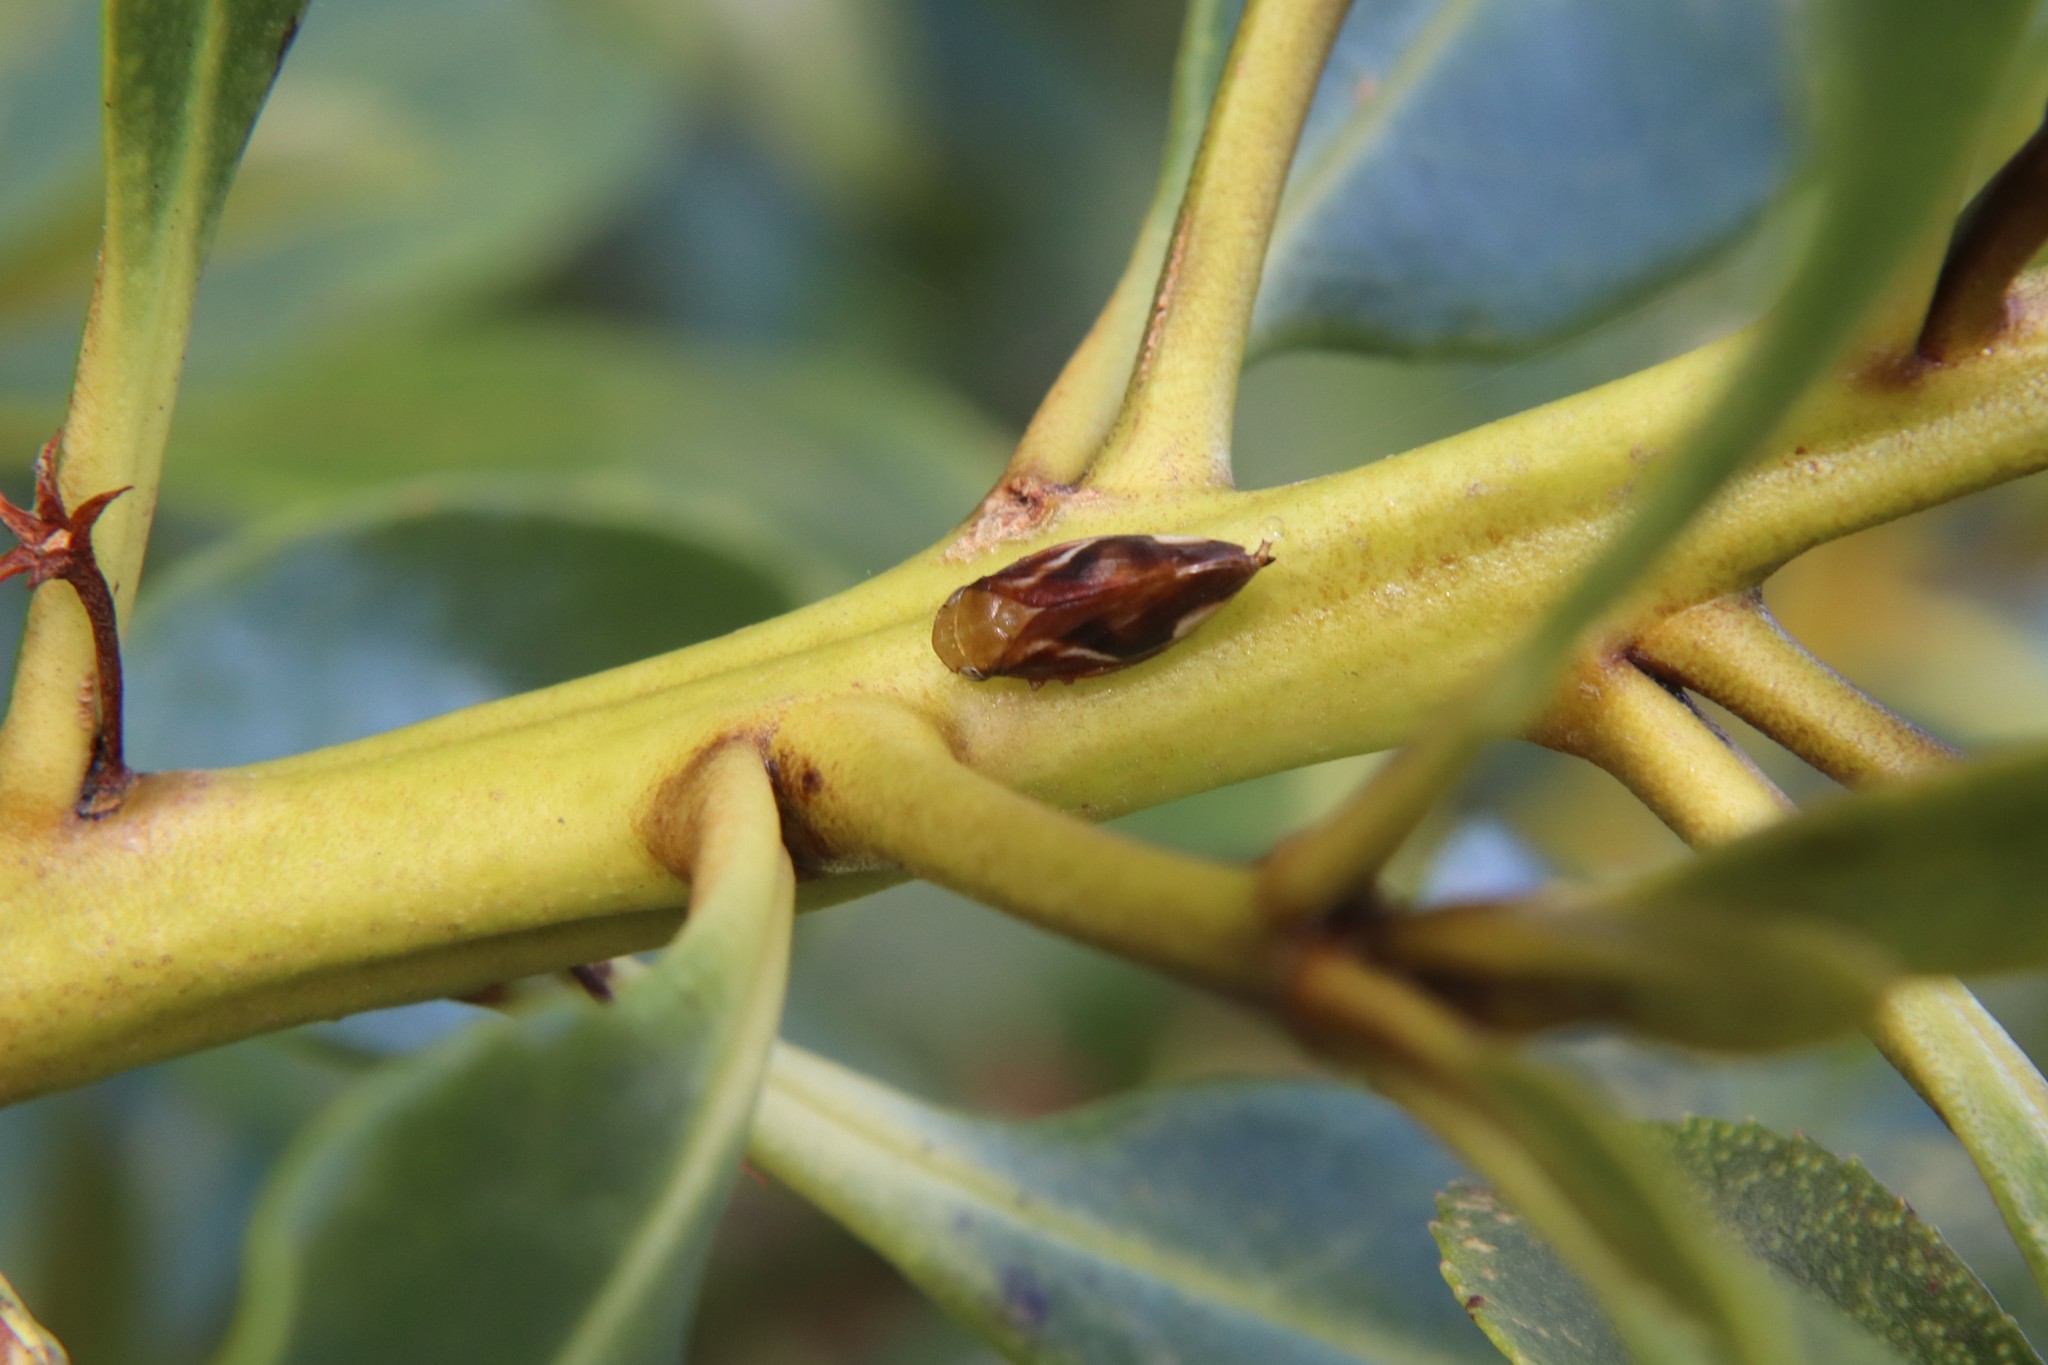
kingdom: Animalia
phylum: Arthropoda
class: Insecta
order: Hemiptera
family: Aphrophoridae
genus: Carystoterpa
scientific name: Carystoterpa fingens
